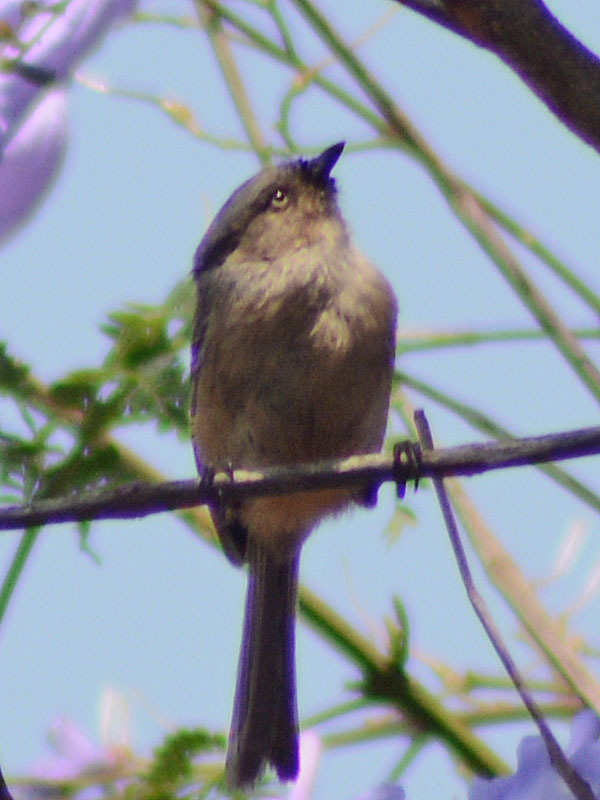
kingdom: Animalia
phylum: Chordata
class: Aves
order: Passeriformes
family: Aegithalidae
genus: Psaltriparus
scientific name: Psaltriparus minimus
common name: American bushtit
